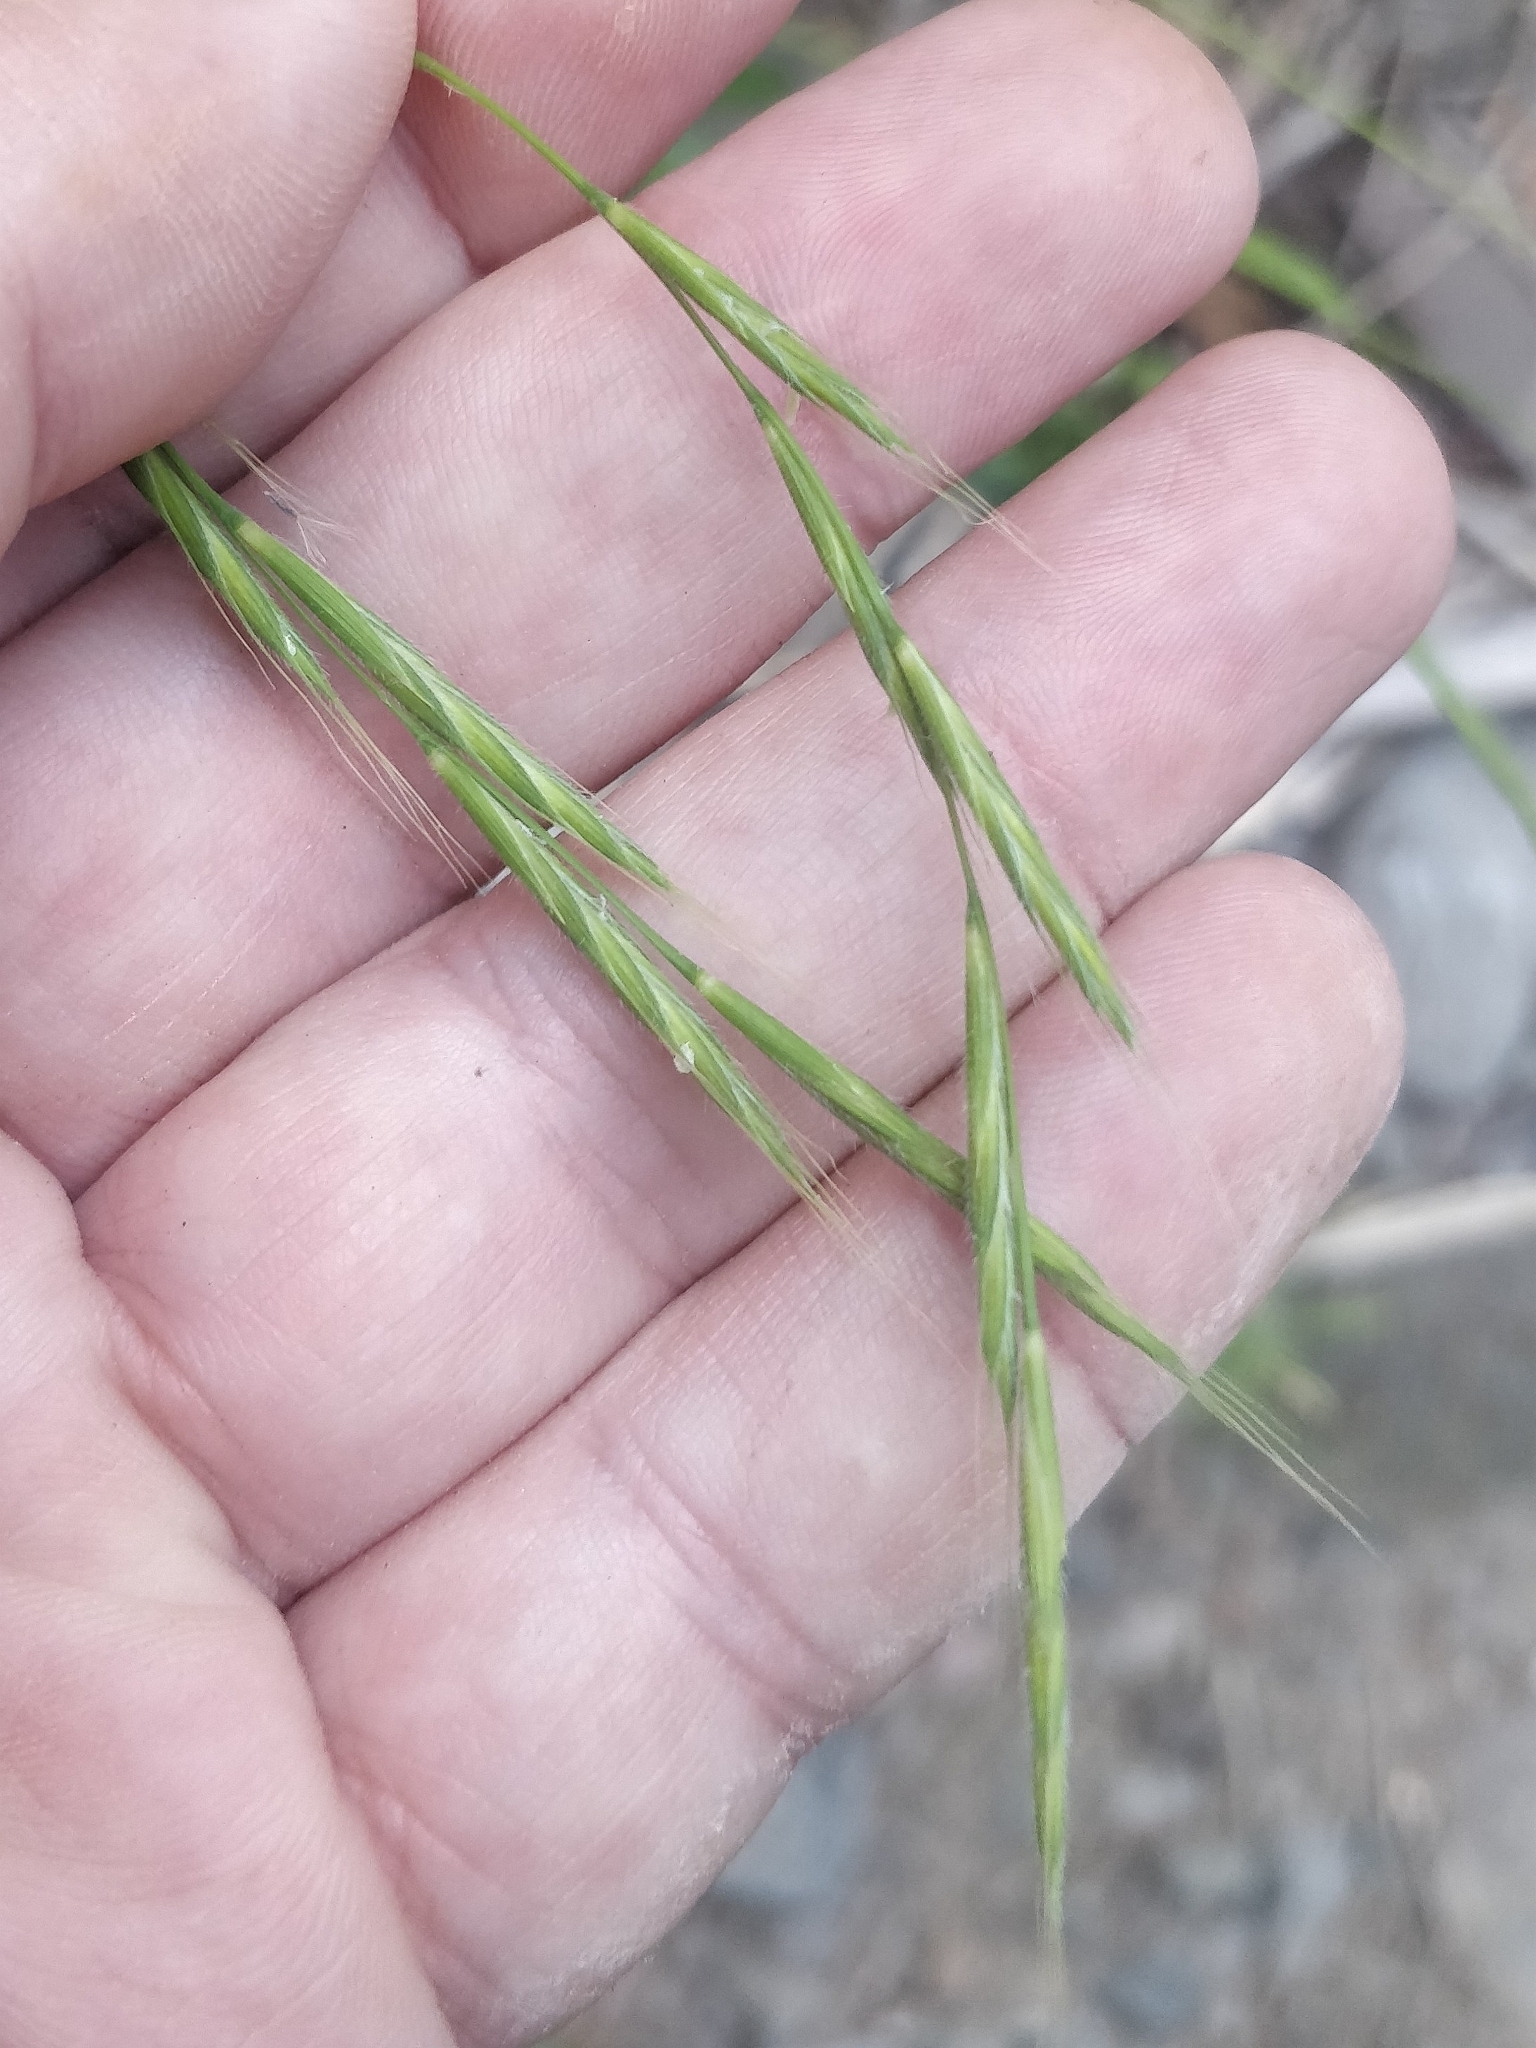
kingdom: Plantae
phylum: Tracheophyta
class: Liliopsida
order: Poales
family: Poaceae
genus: Brachypodium
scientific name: Brachypodium sylvaticum
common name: False-brome
